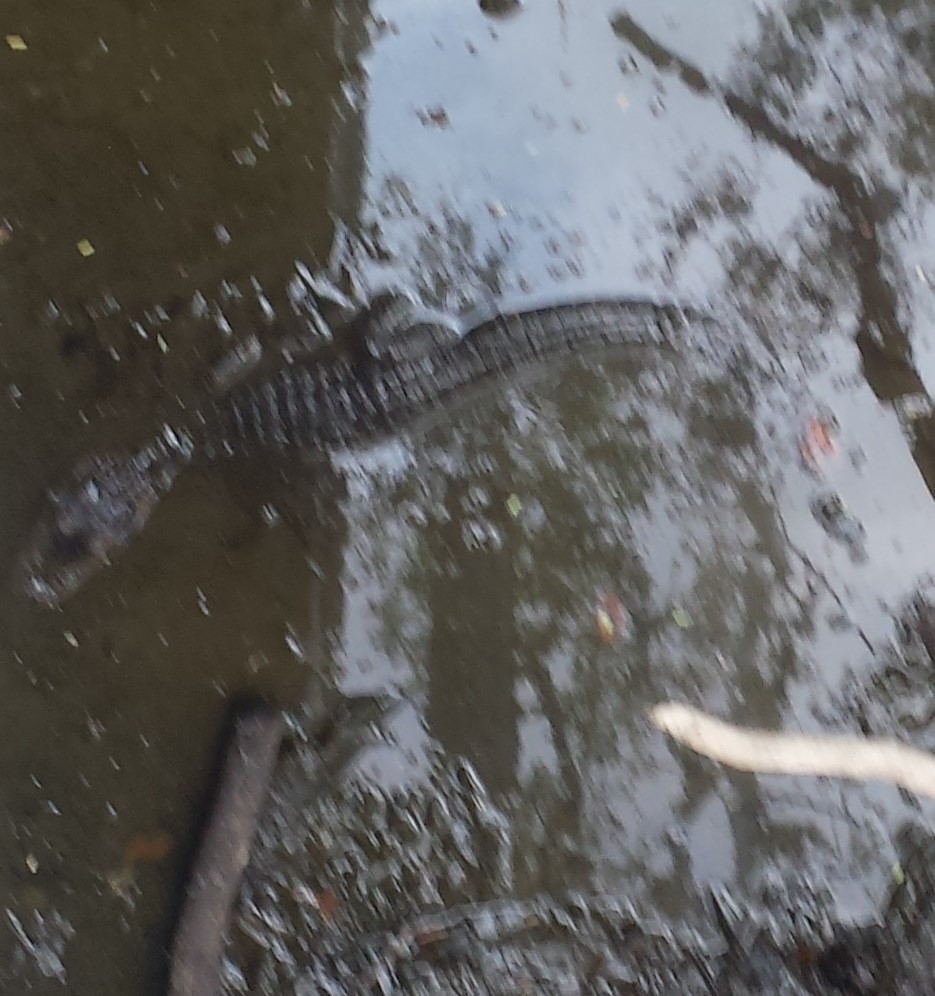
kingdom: Animalia
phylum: Chordata
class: Crocodylia
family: Alligatoridae
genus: Alligator
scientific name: Alligator mississippiensis
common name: American alligator
